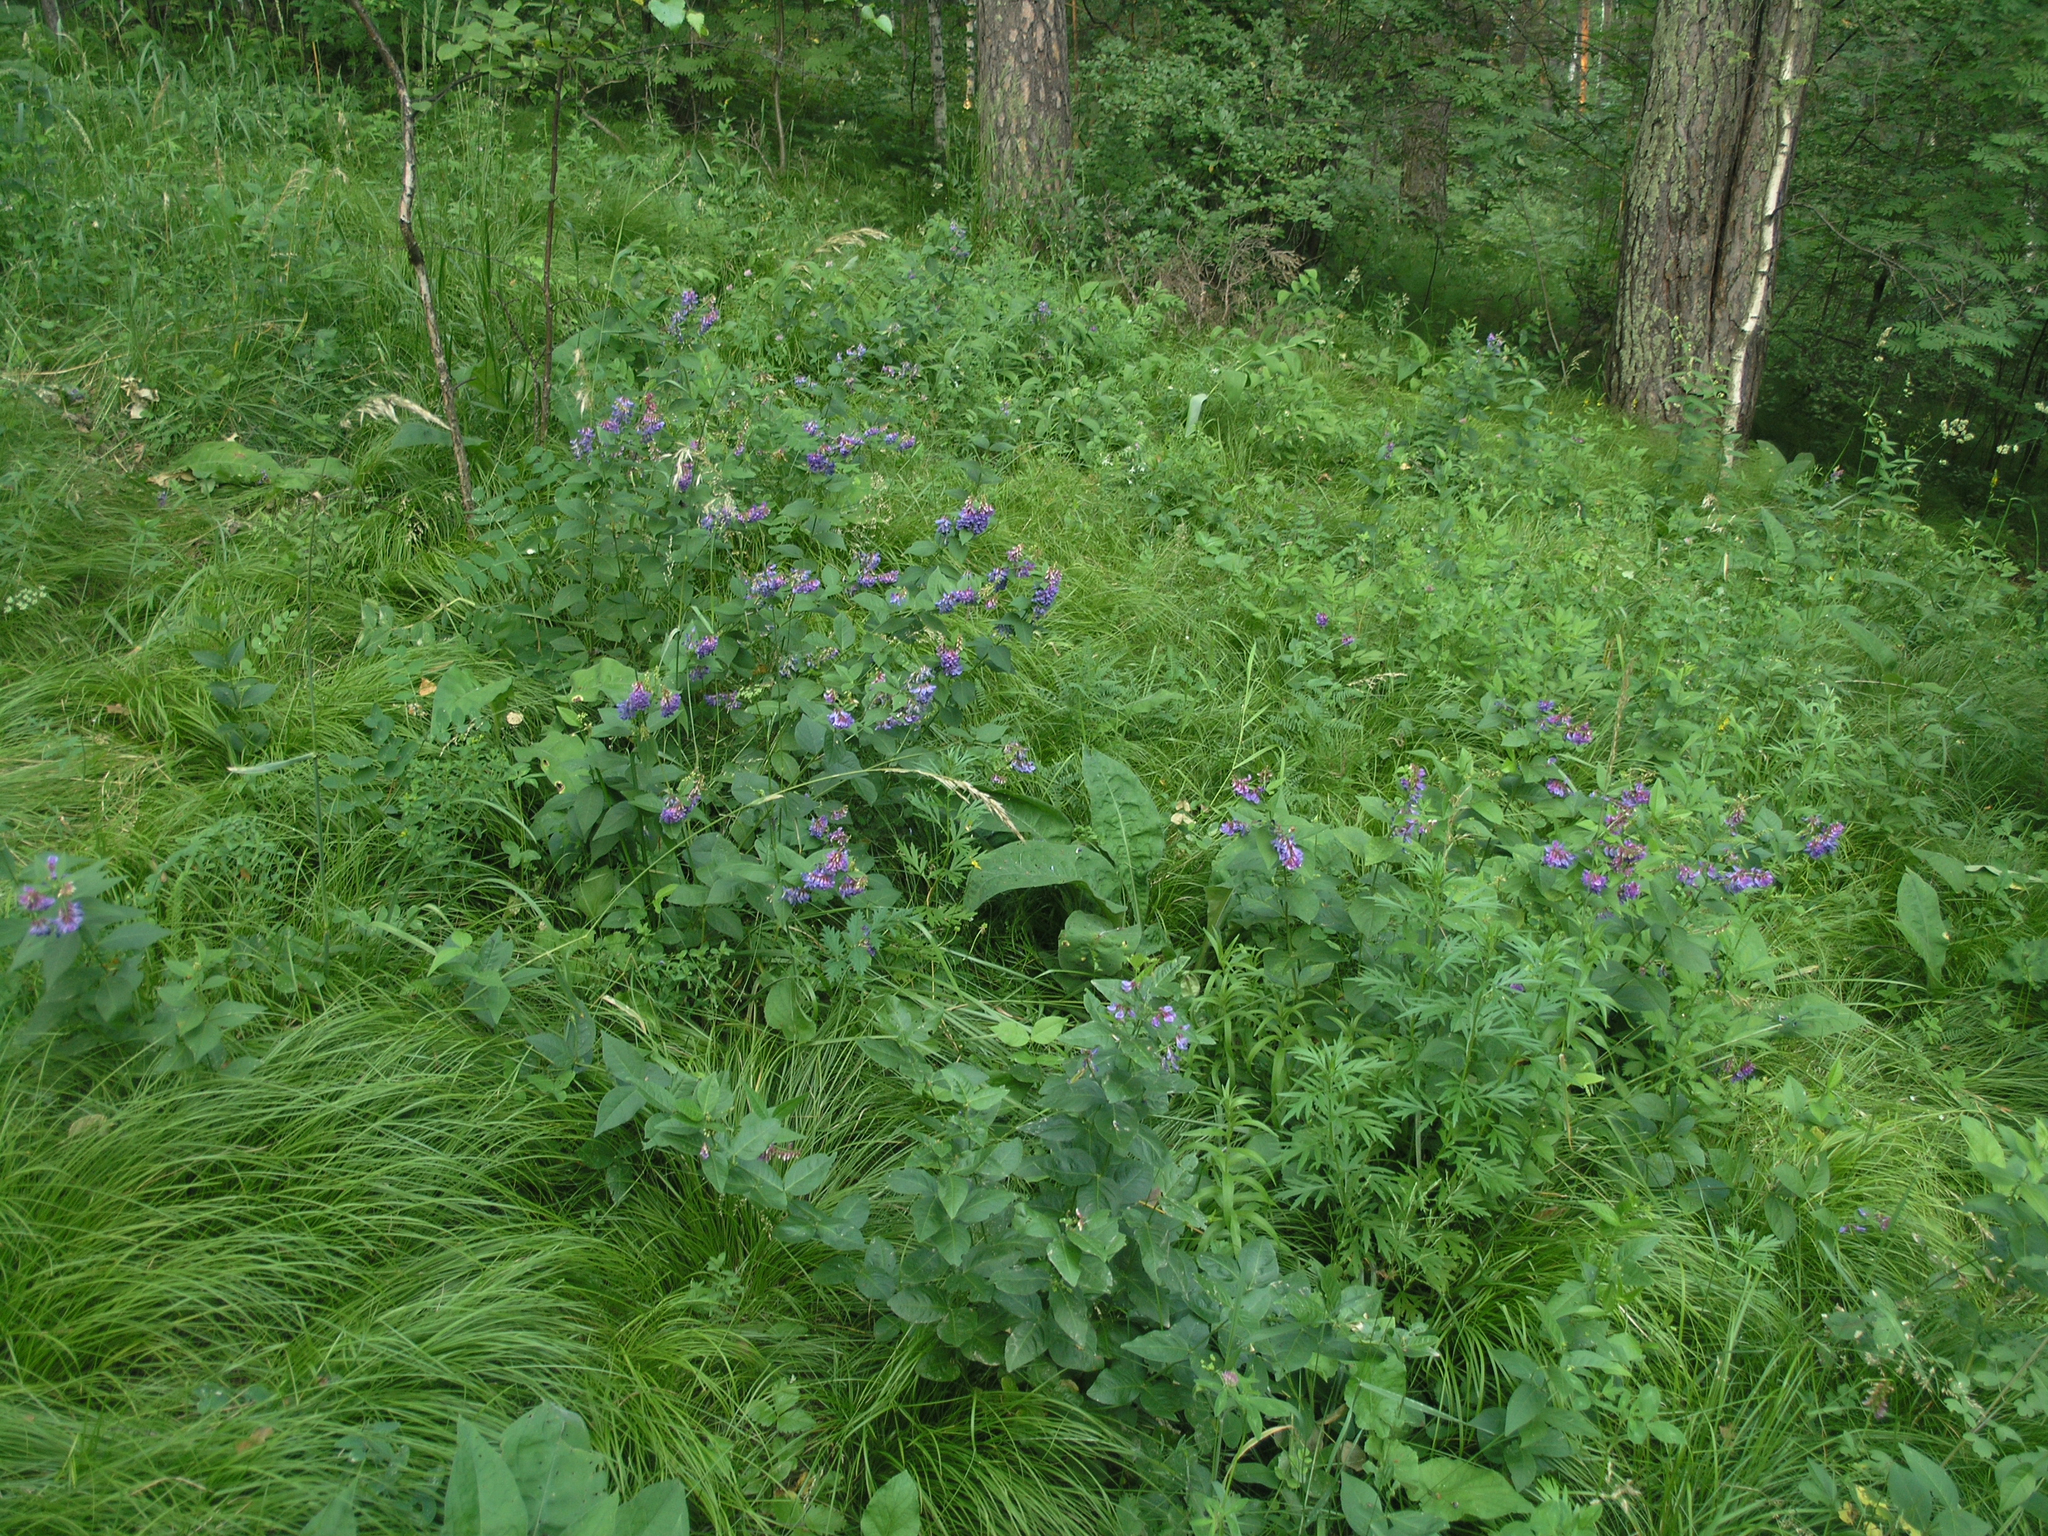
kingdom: Plantae
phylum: Tracheophyta
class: Magnoliopsida
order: Fabales
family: Fabaceae
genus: Vicia
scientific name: Vicia unijuga
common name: Two-leaf vetch
